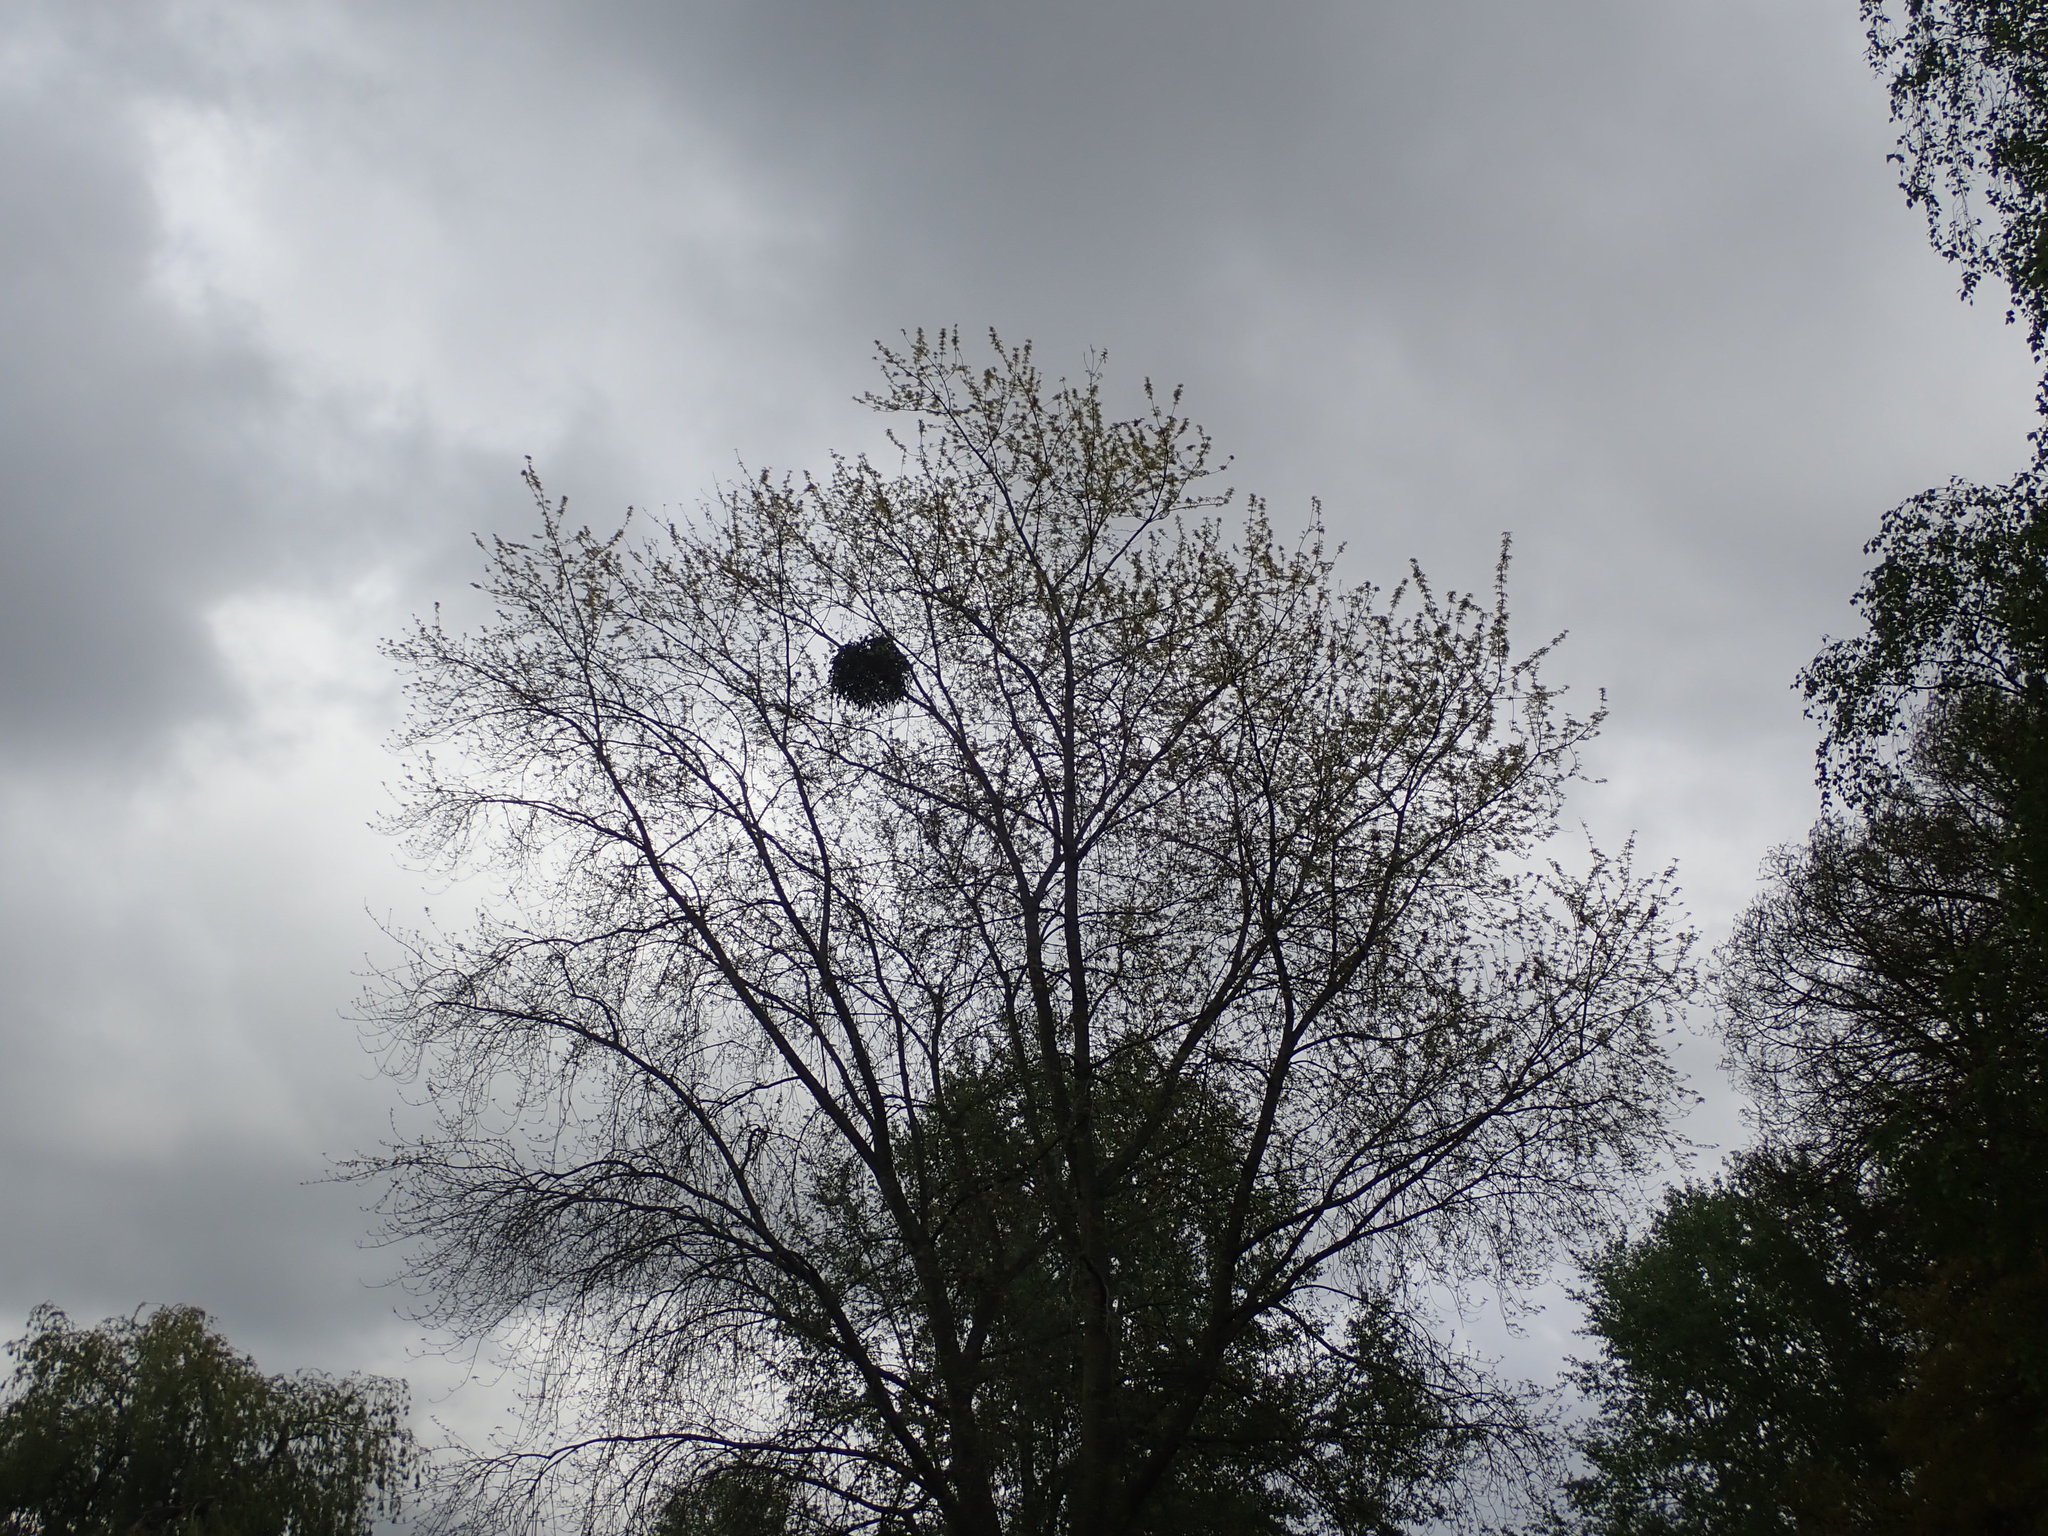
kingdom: Plantae
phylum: Tracheophyta
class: Magnoliopsida
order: Santalales
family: Viscaceae
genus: Viscum
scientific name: Viscum album
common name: Mistletoe
